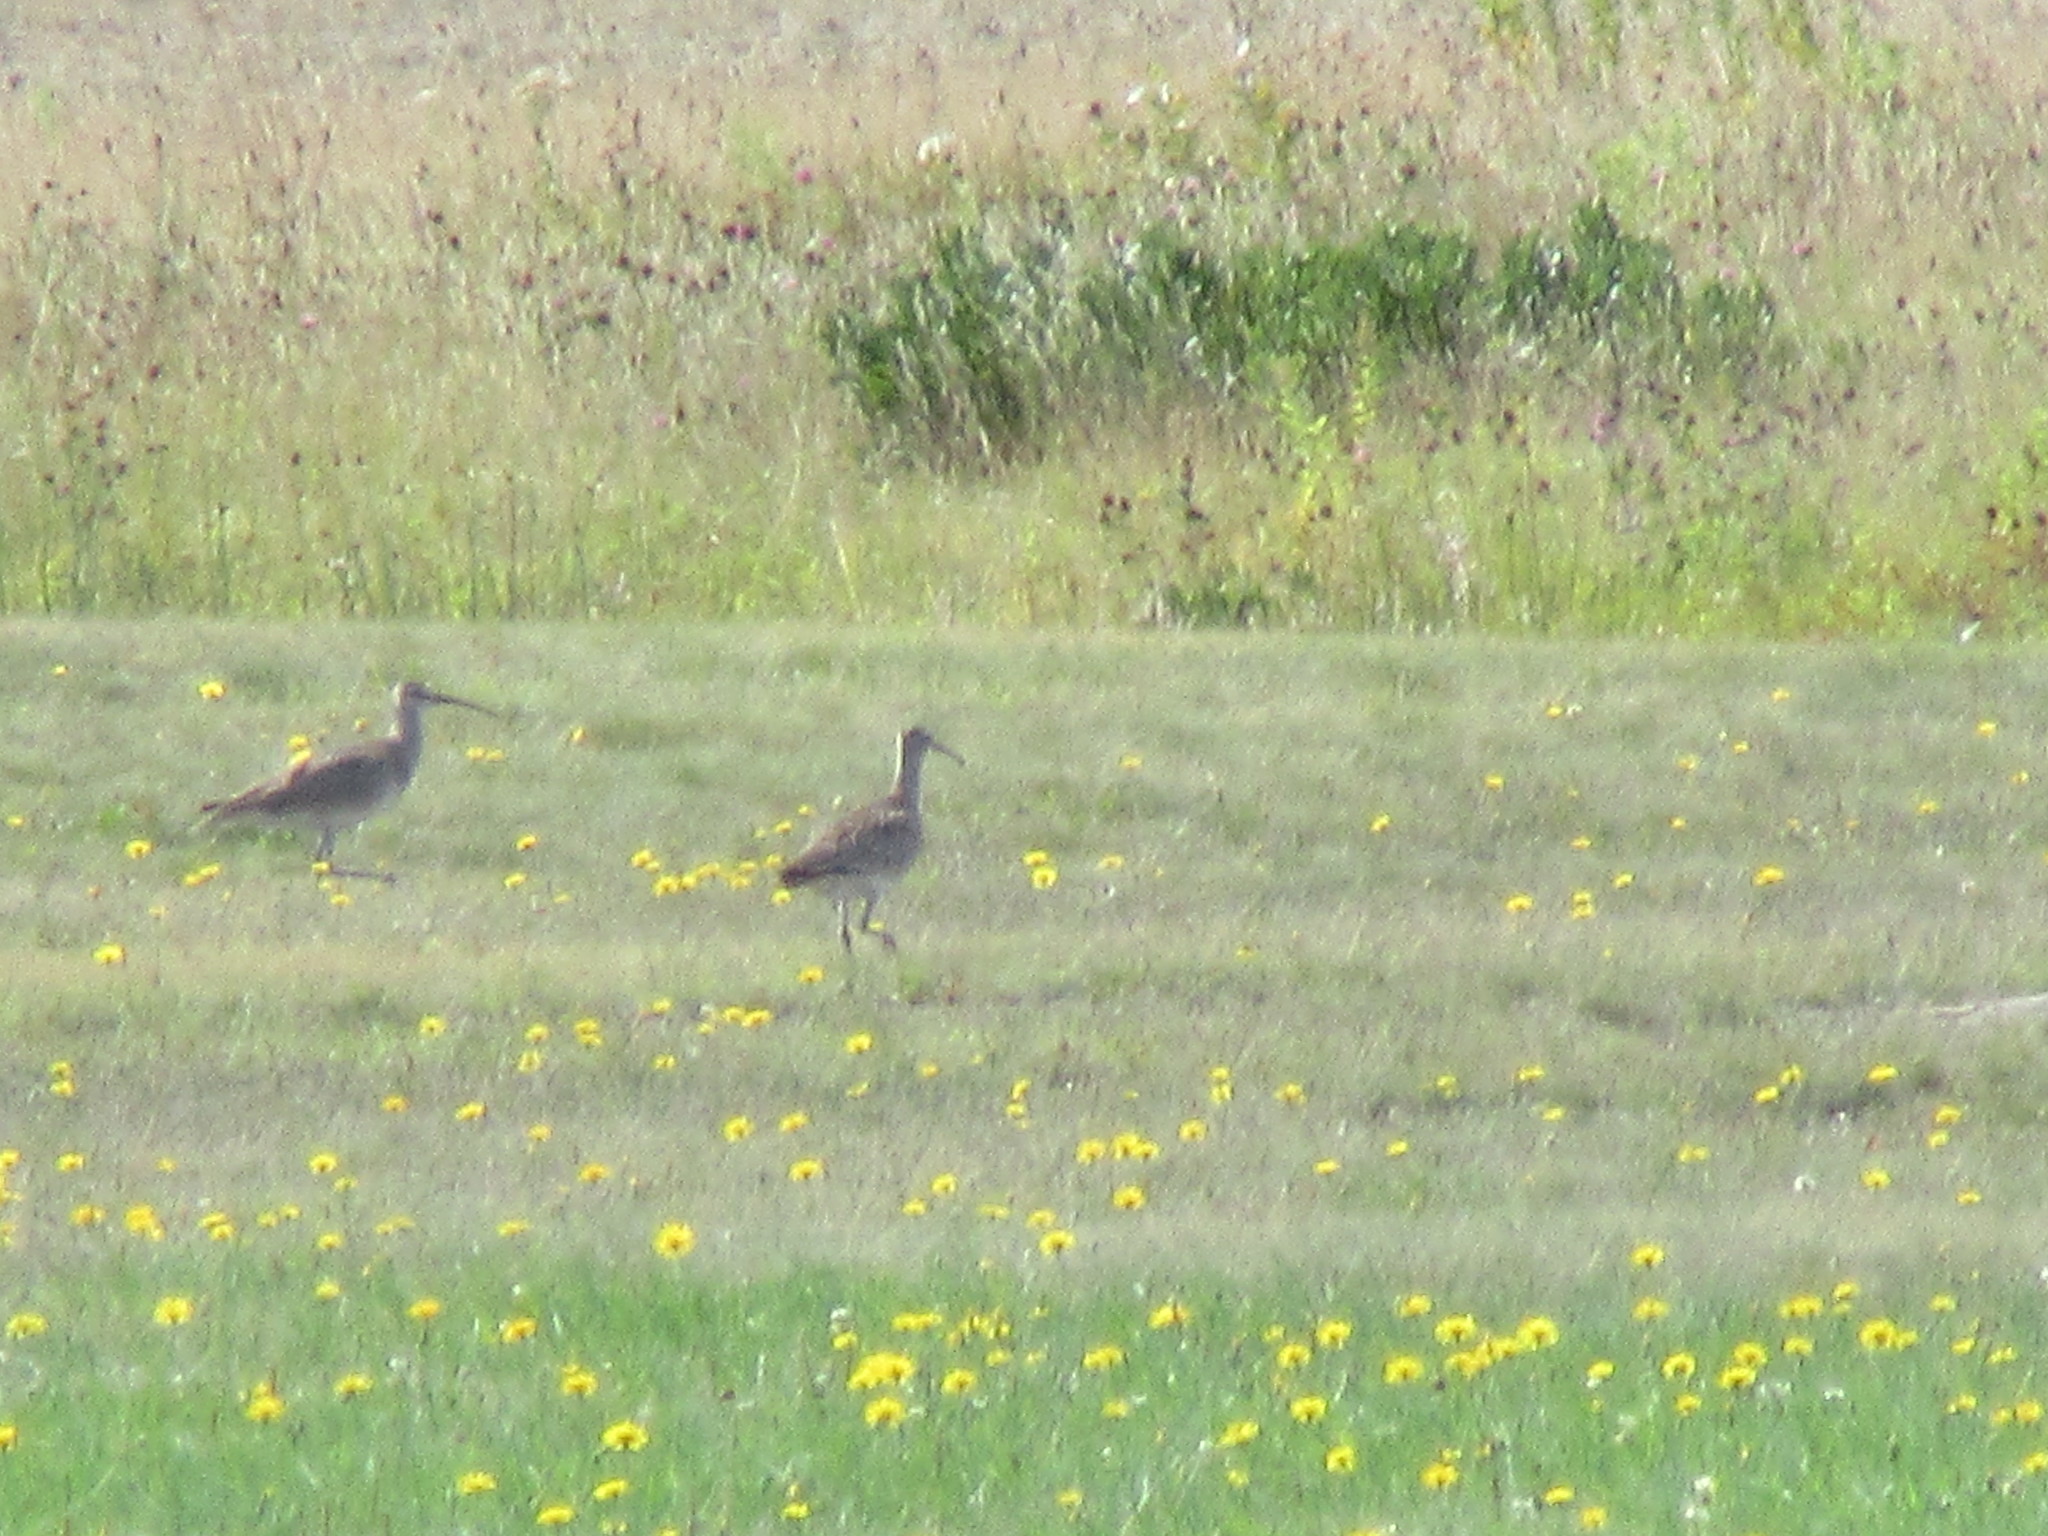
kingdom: Animalia
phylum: Chordata
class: Aves
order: Charadriiformes
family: Scolopacidae
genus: Numenius
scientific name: Numenius phaeopus
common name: Whimbrel
